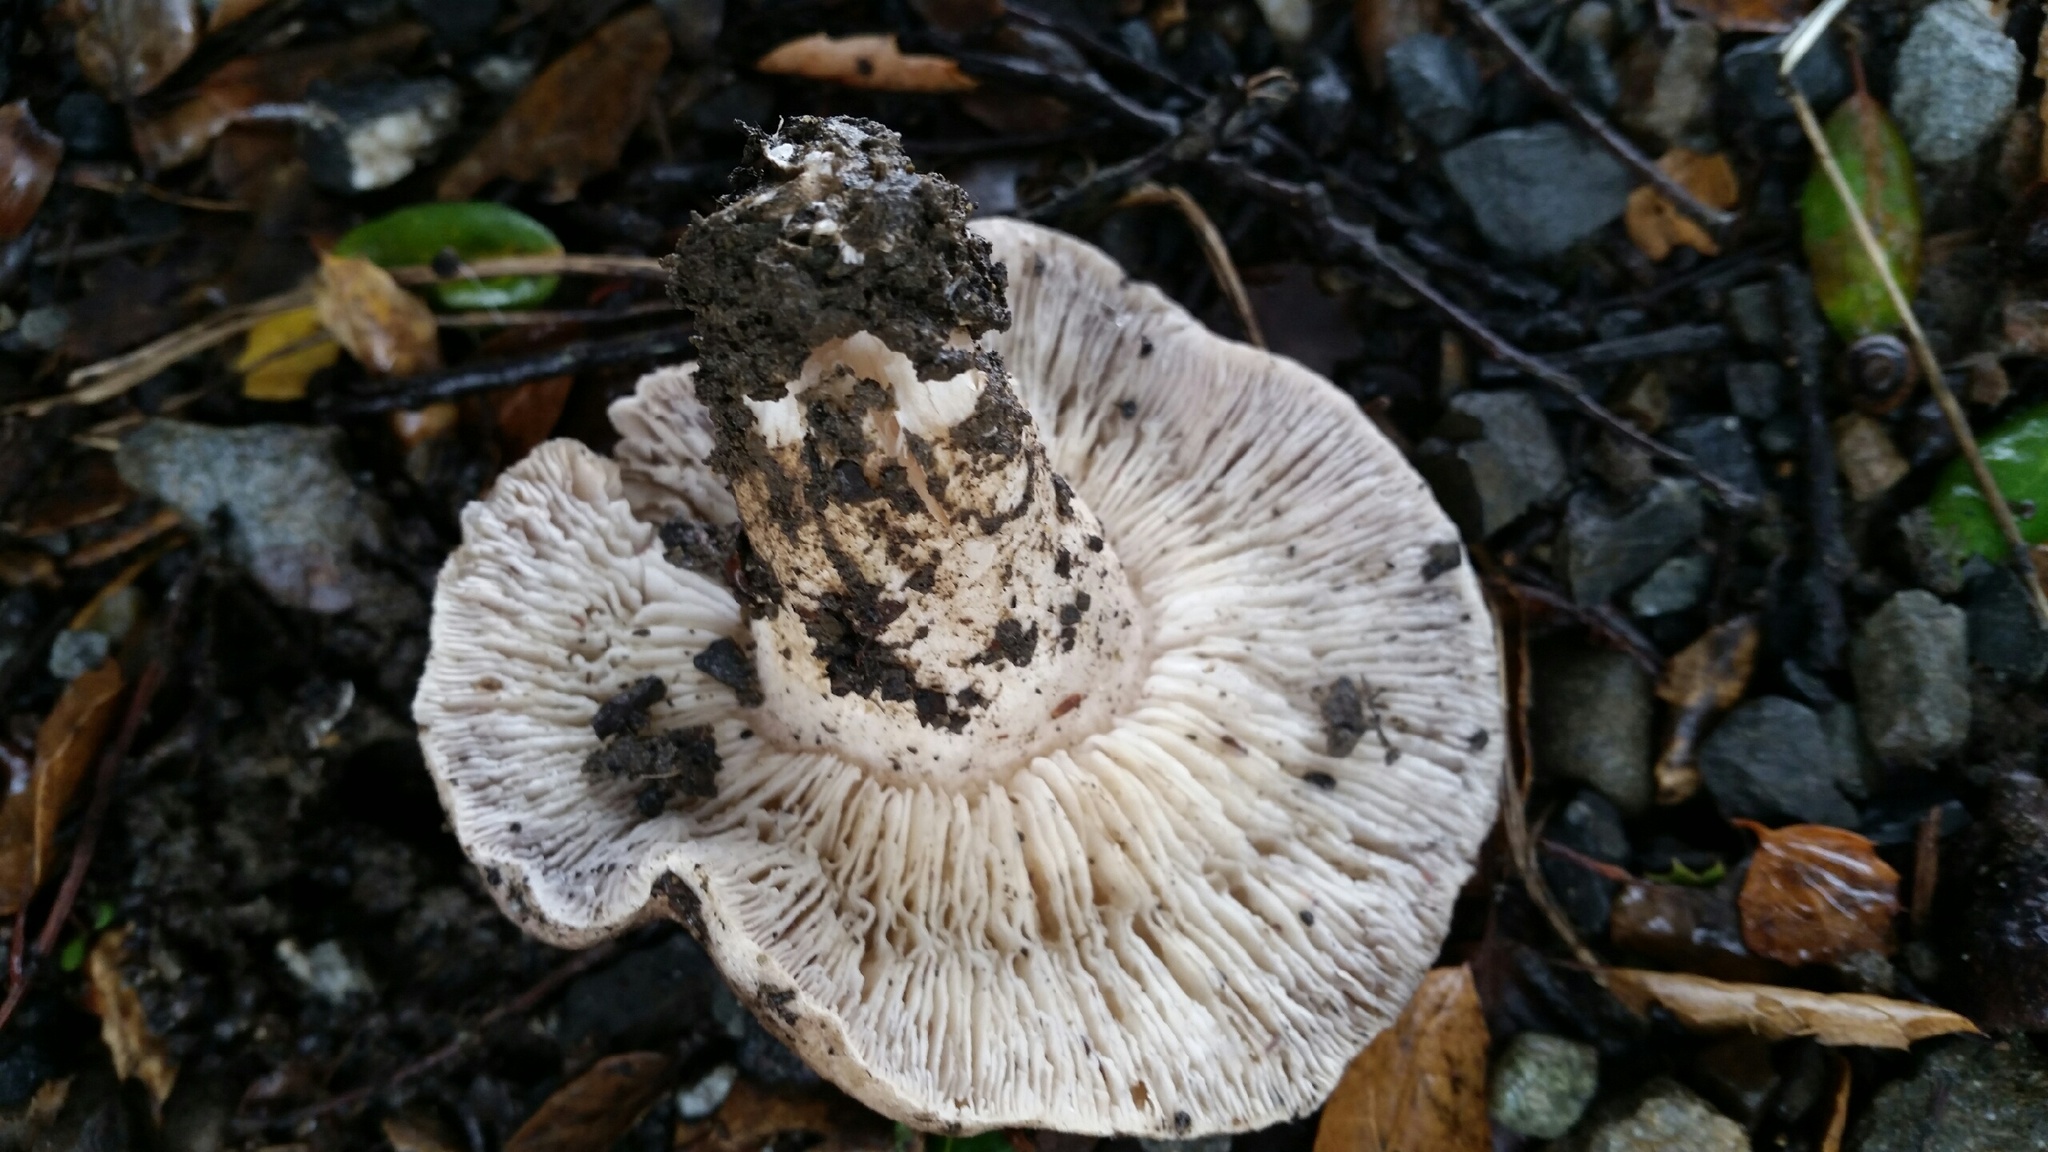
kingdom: Fungi
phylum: Basidiomycota
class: Agaricomycetes
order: Agaricales
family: Tricholomataceae
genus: Tricholoma
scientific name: Tricholoma terreum
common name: Grey knight
